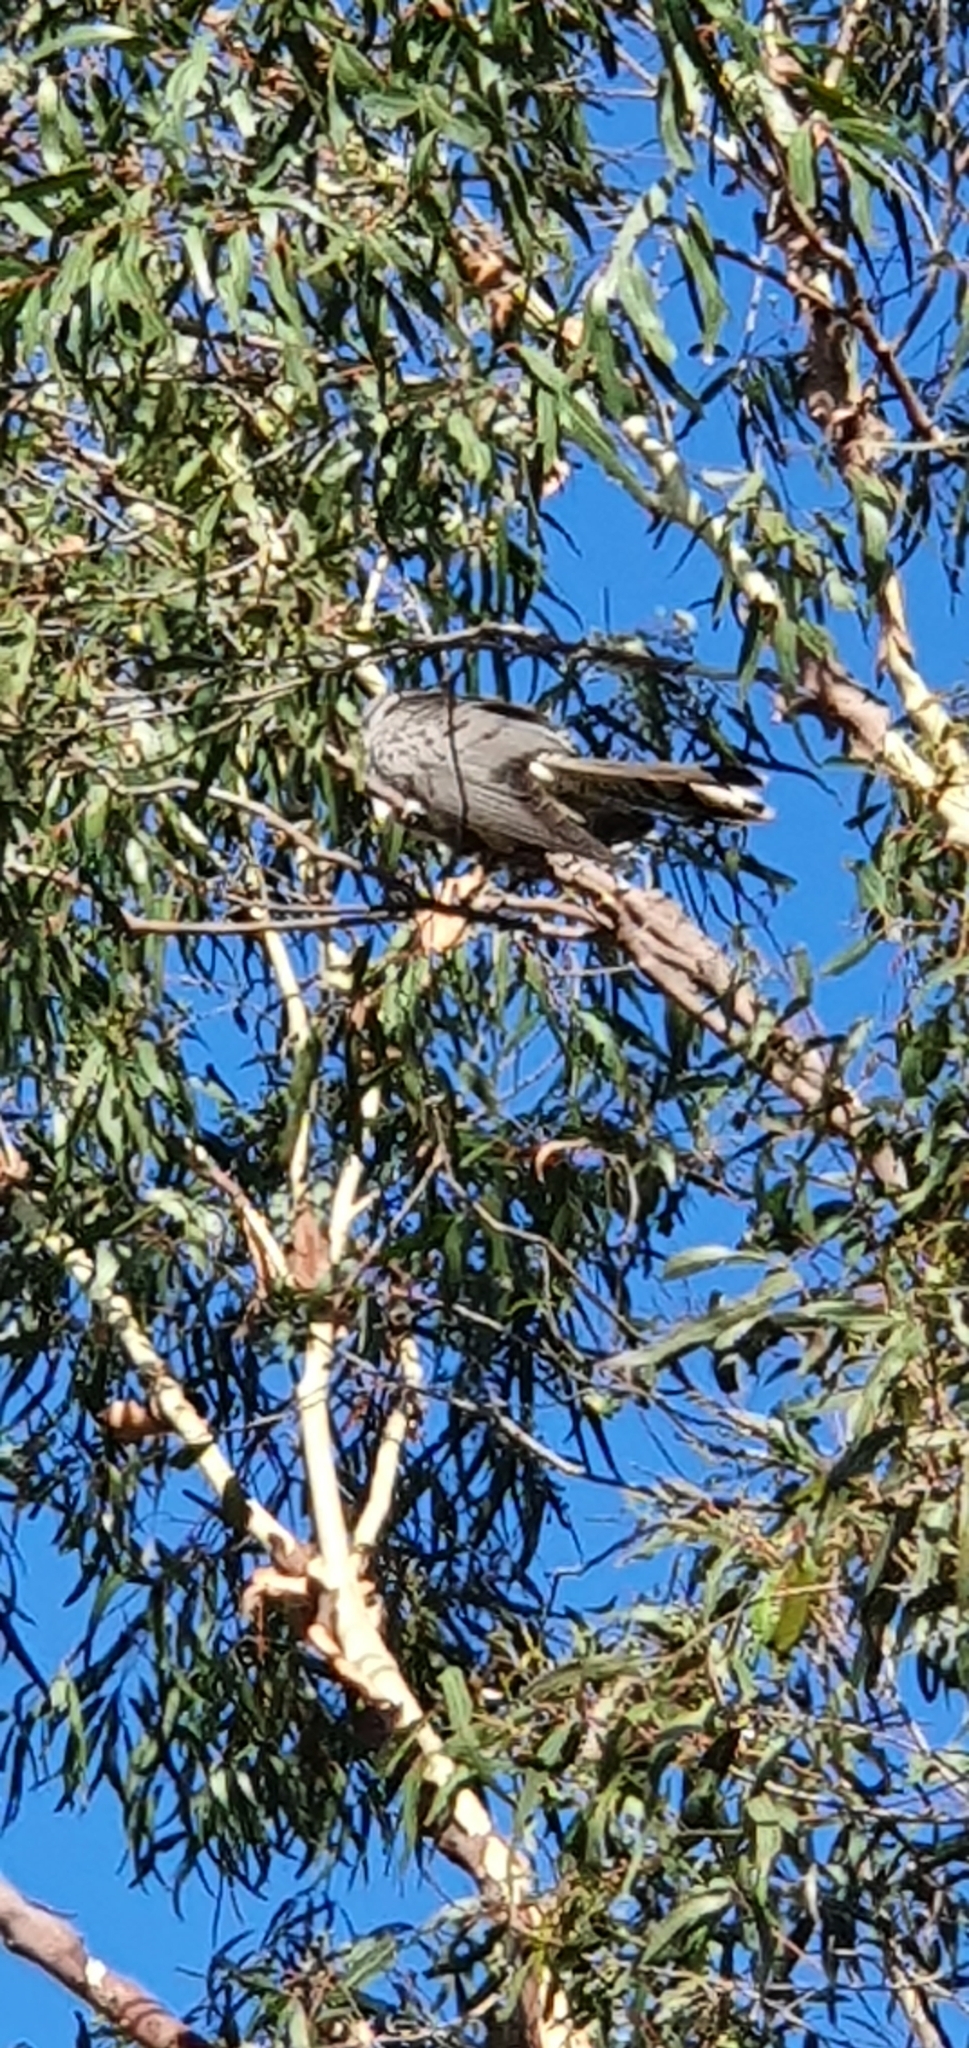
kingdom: Animalia
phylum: Chordata
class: Aves
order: Cuculiformes
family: Cuculidae
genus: Scythrops
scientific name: Scythrops novaehollandiae
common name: Channel-billed cuckoo
